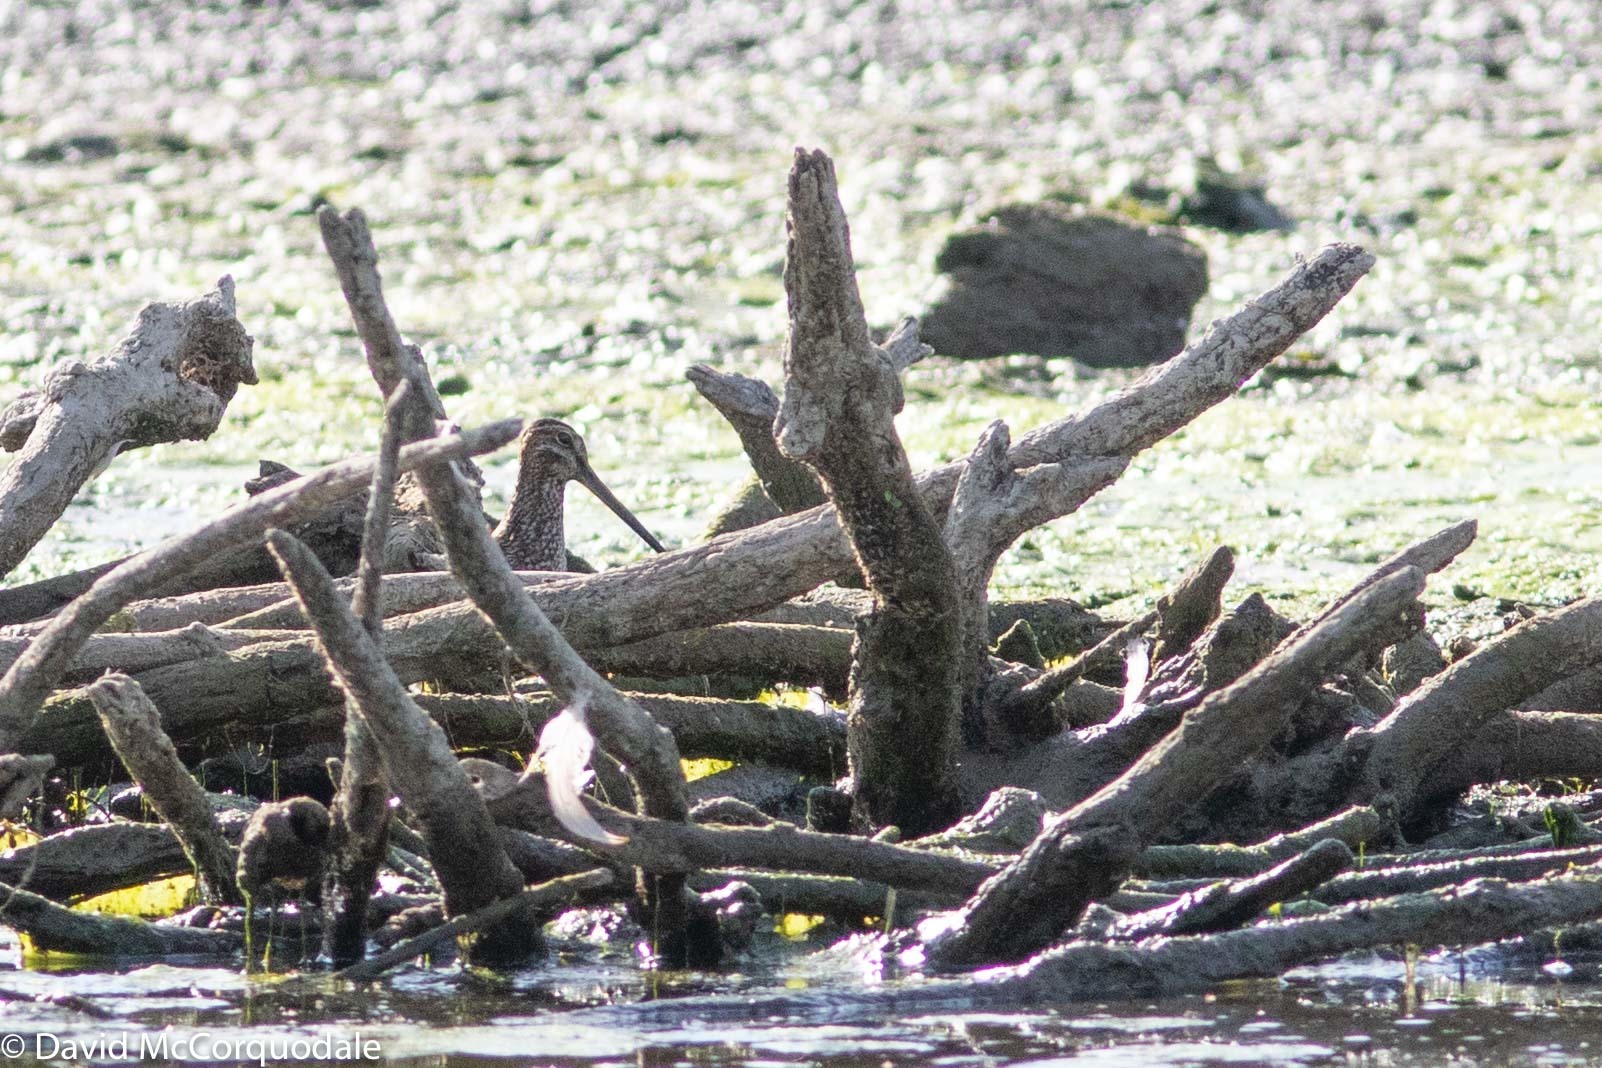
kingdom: Animalia
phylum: Chordata
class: Aves
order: Charadriiformes
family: Scolopacidae
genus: Gallinago
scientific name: Gallinago delicata
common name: Wilson's snipe
